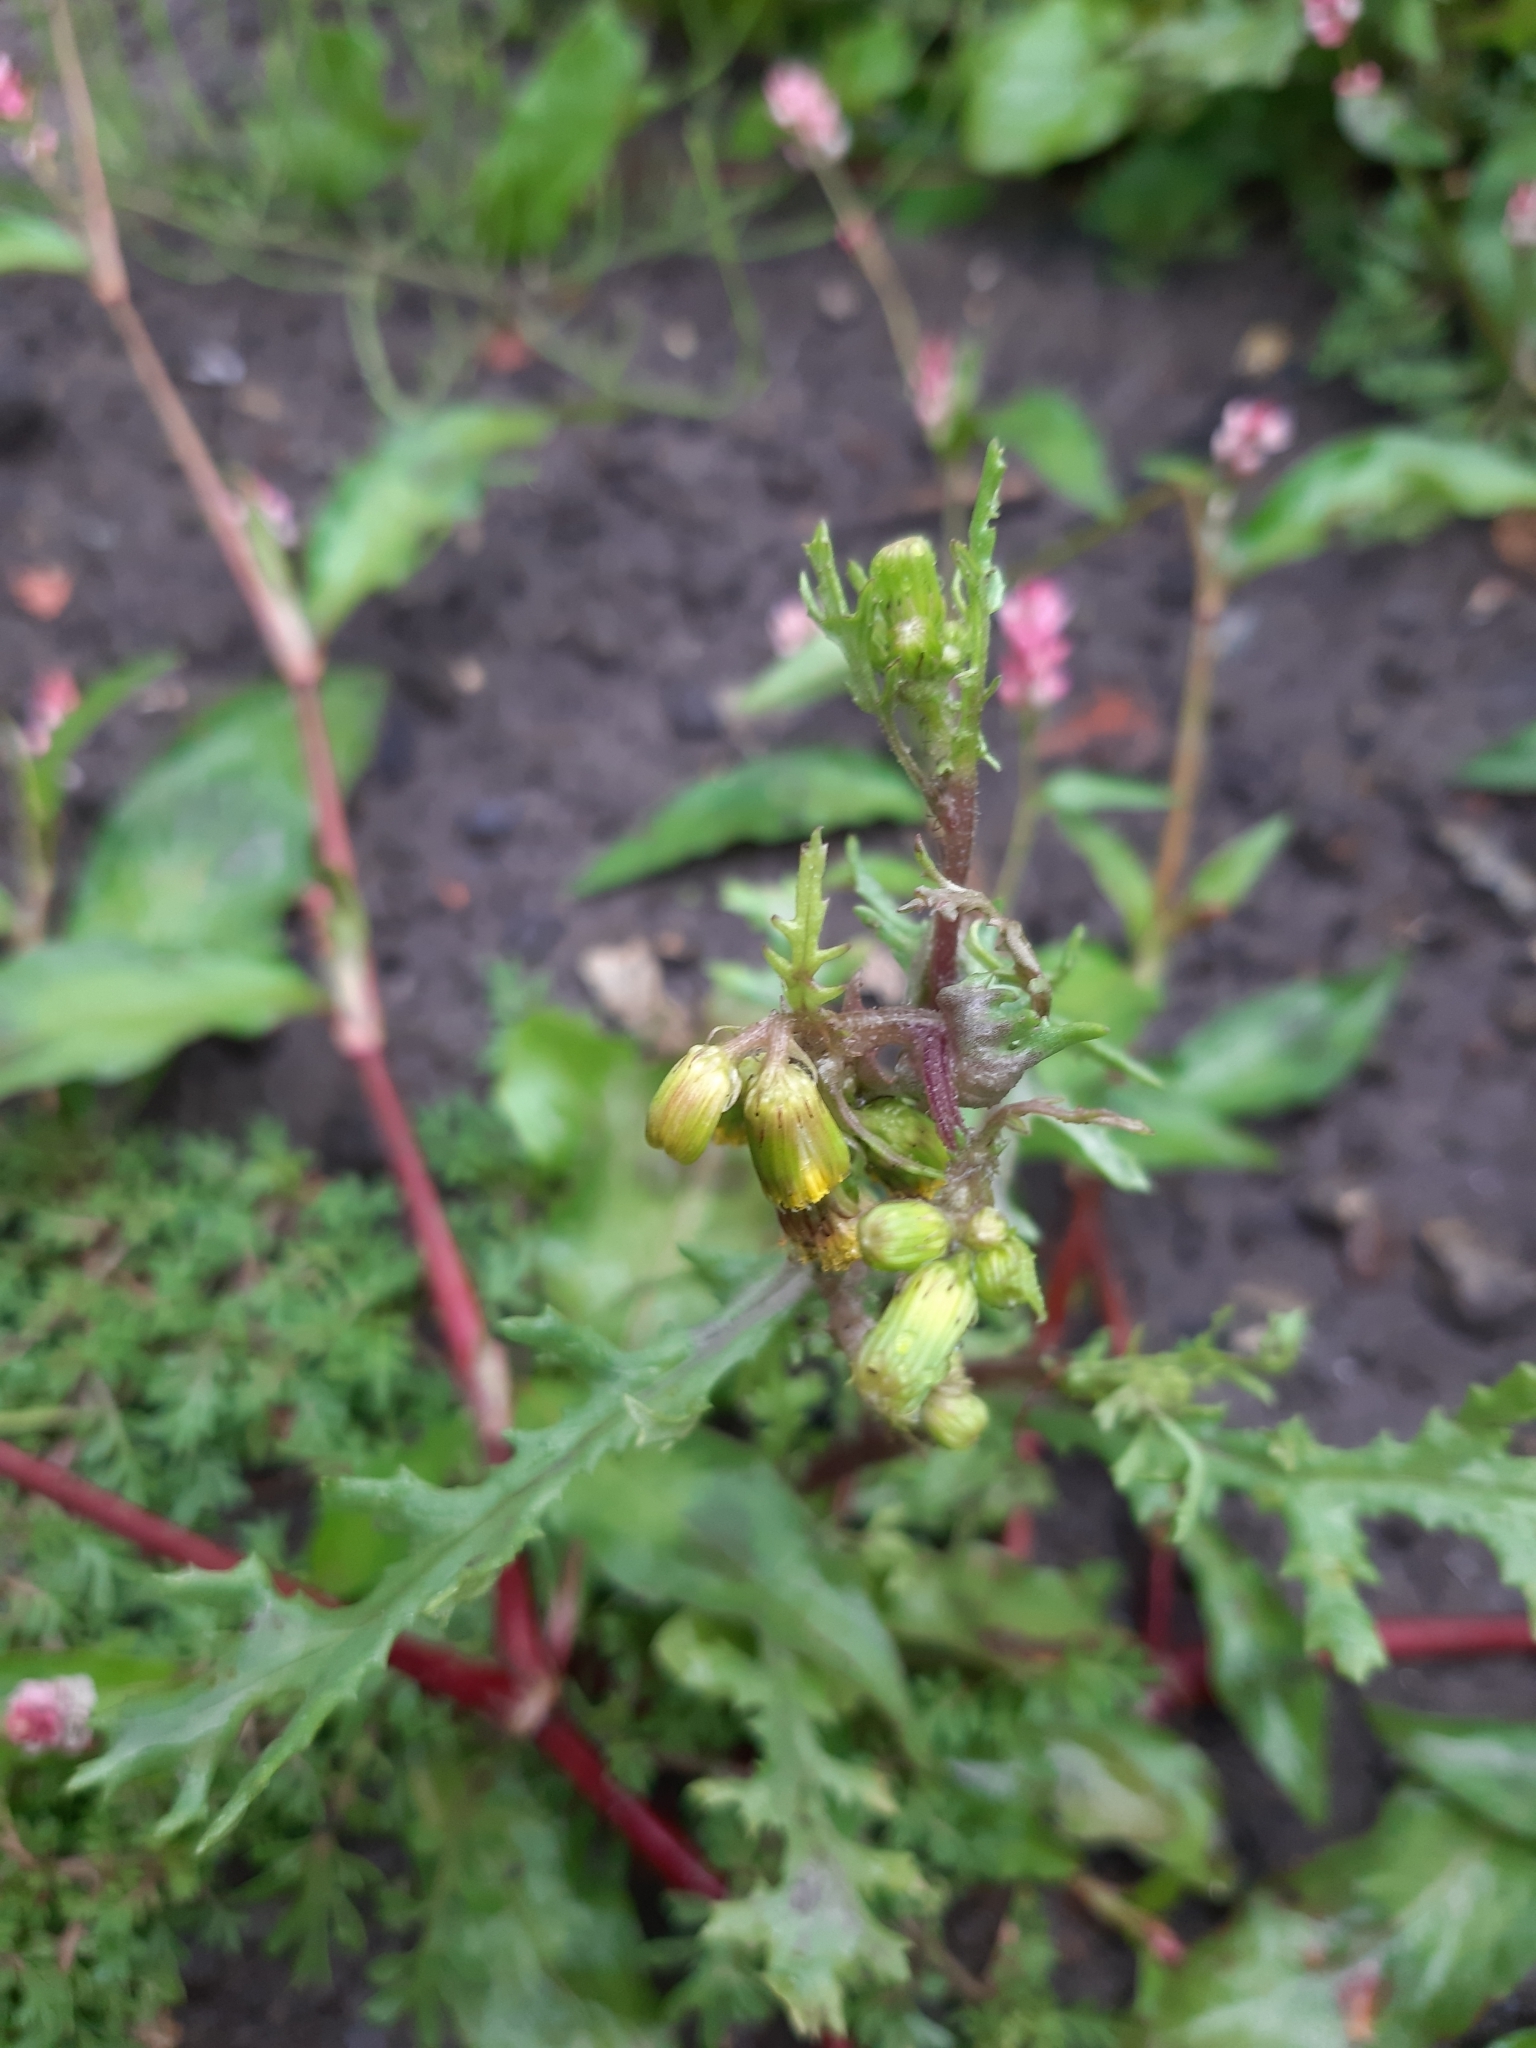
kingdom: Plantae
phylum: Tracheophyta
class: Magnoliopsida
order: Asterales
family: Asteraceae
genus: Senecio
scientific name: Senecio vulgaris
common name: Old-man-in-the-spring
